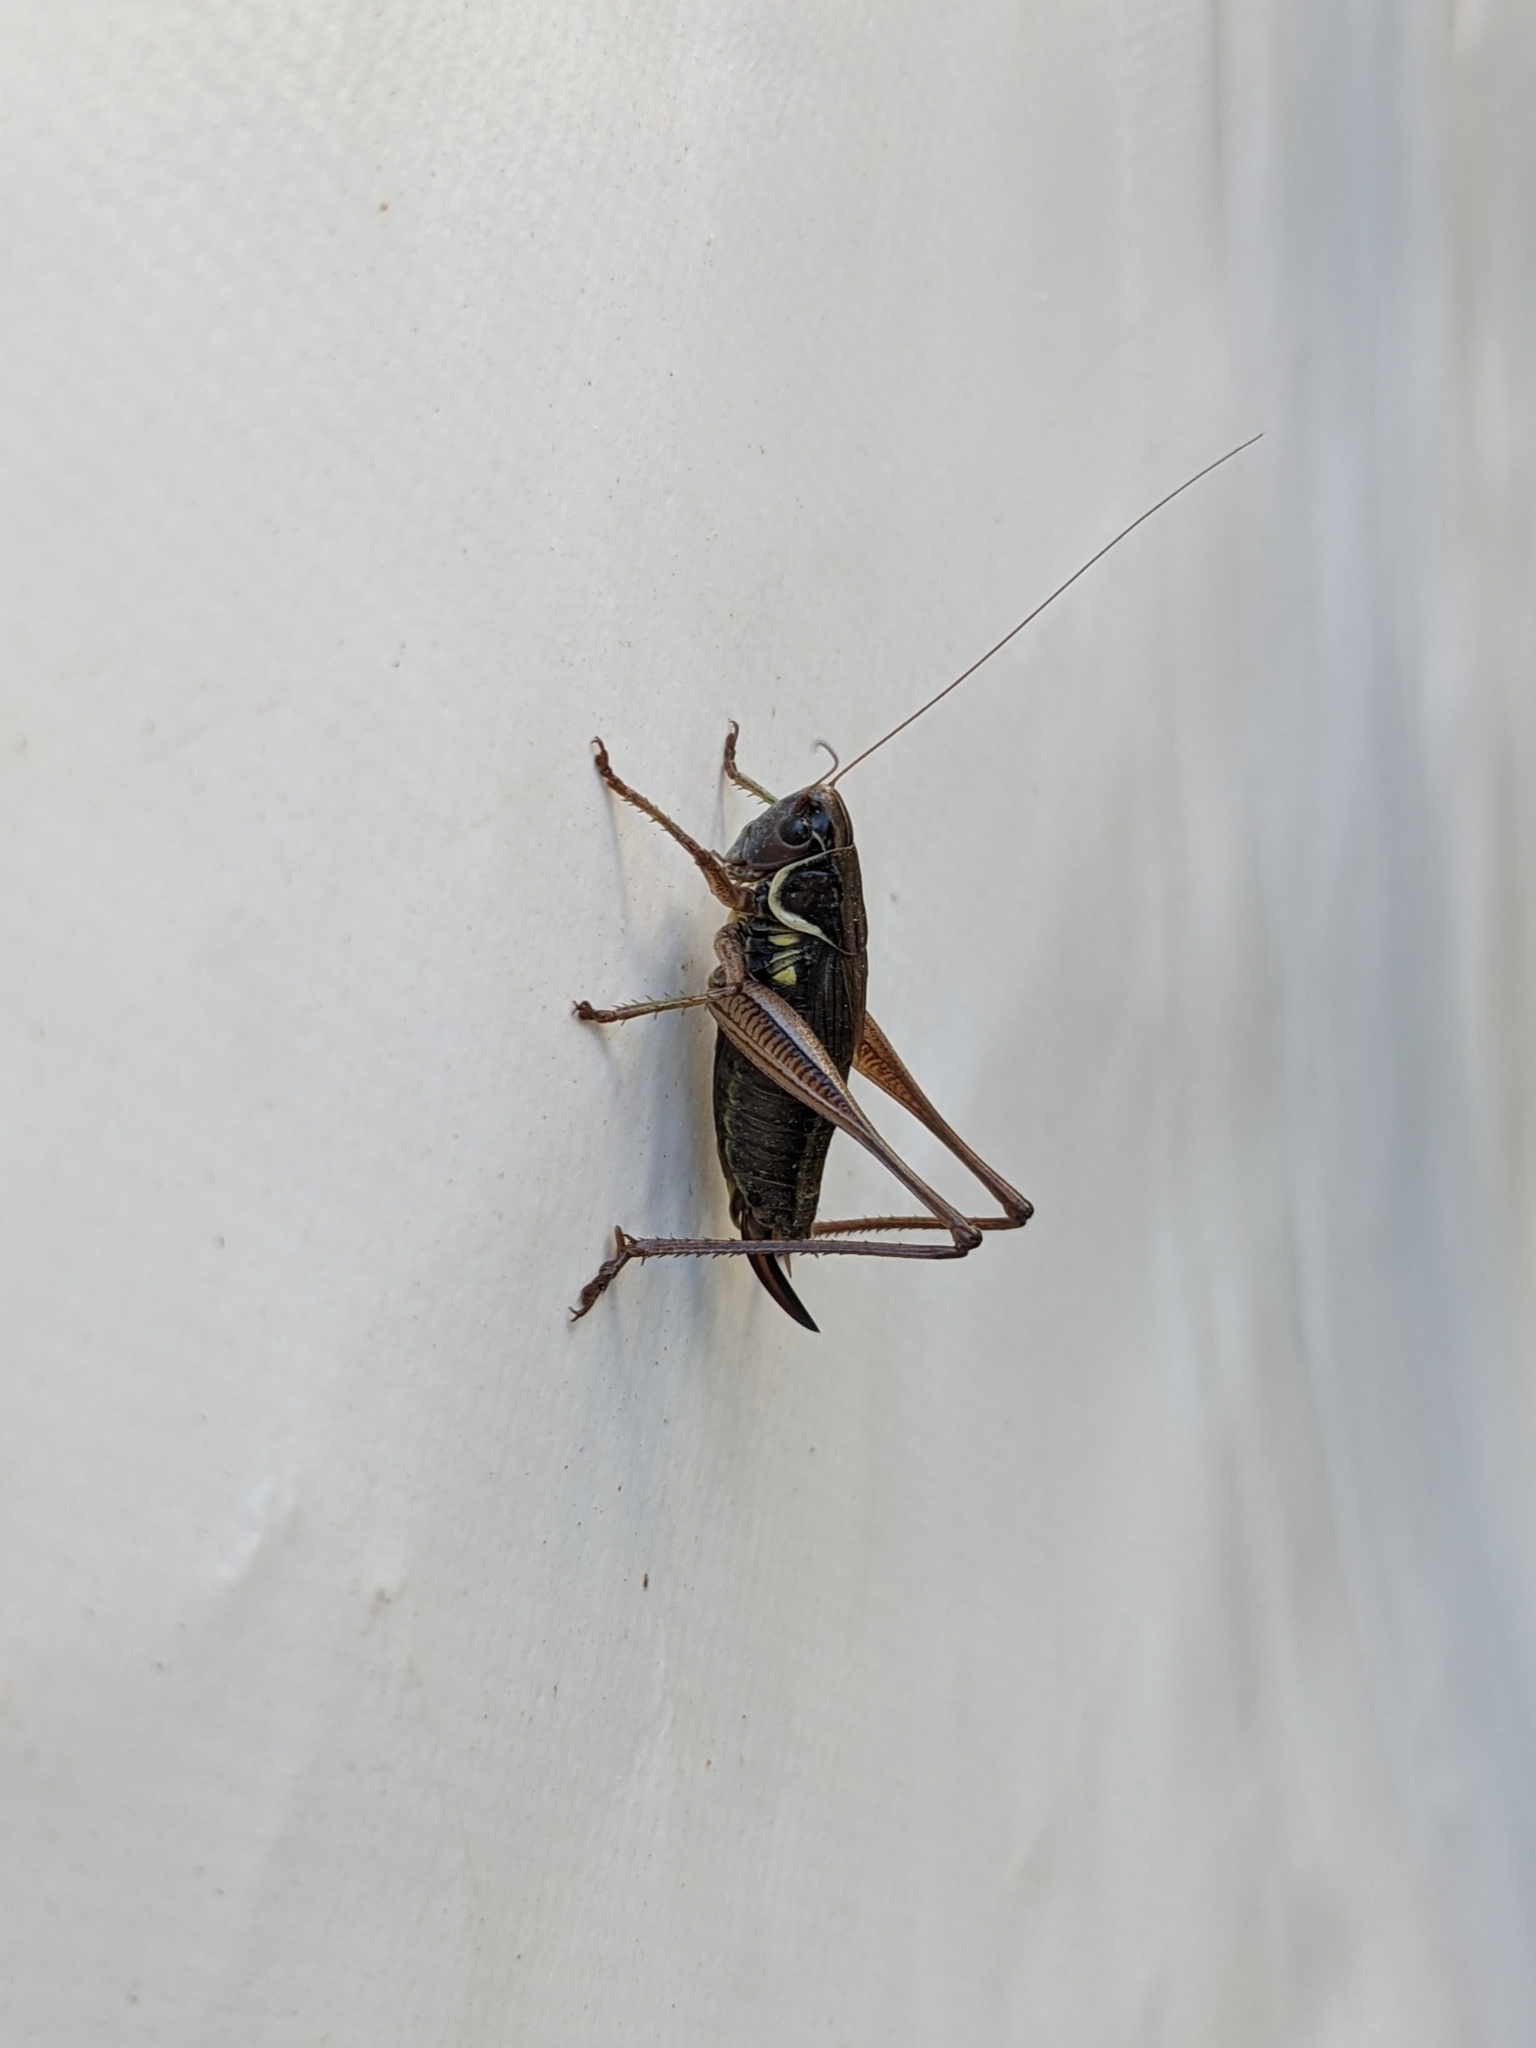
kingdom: Animalia
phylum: Arthropoda
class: Insecta
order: Orthoptera
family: Tettigoniidae
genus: Roeseliana
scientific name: Roeseliana roeselii
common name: Roesel's bush cricket
